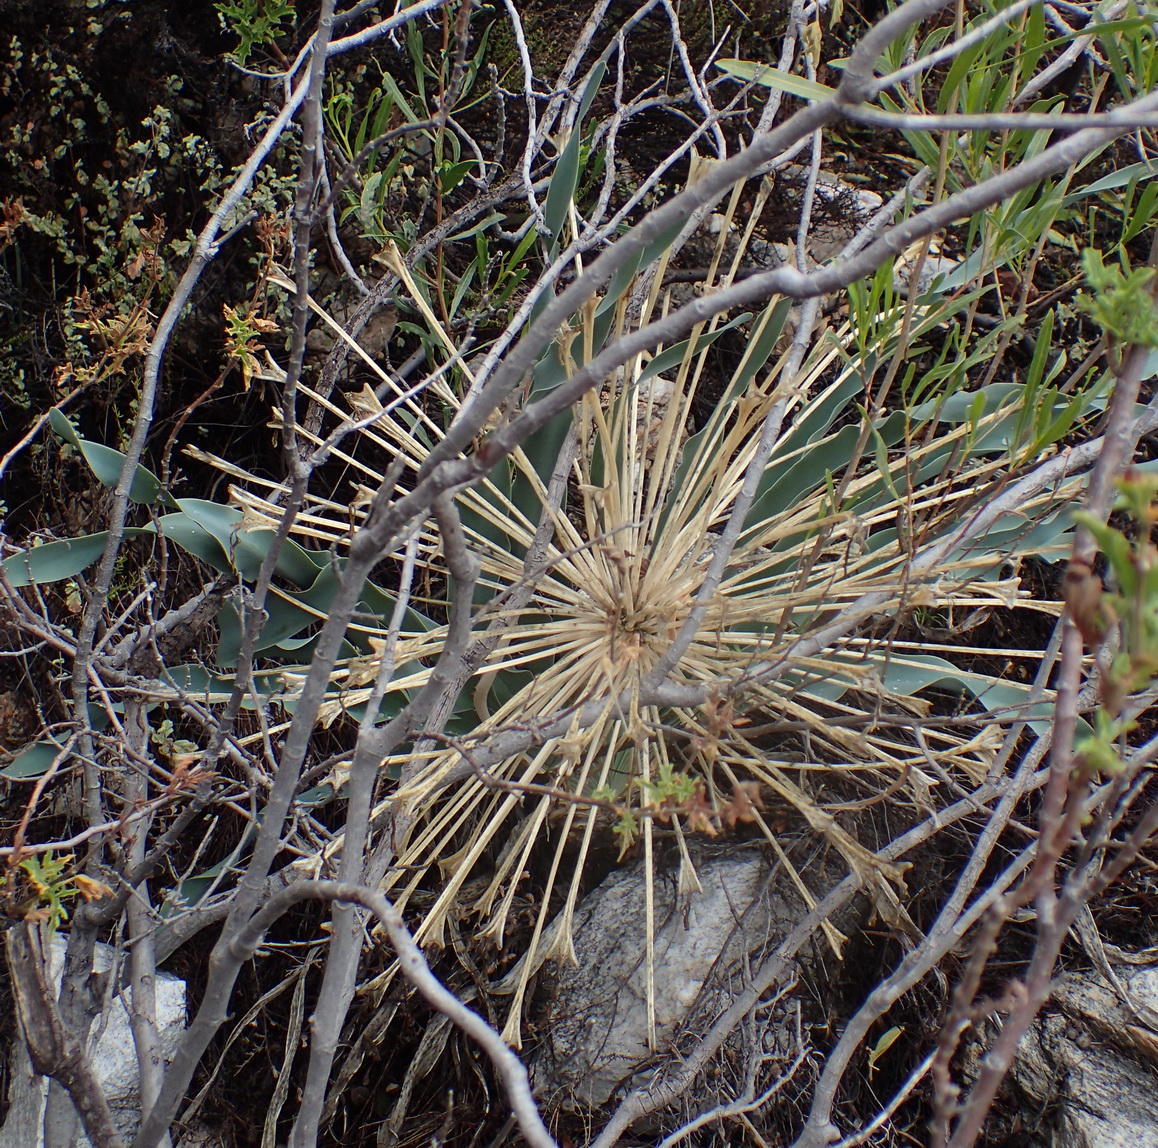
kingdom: Plantae
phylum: Tracheophyta
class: Liliopsida
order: Asparagales
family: Amaryllidaceae
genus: Boophone
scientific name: Boophone disticha
